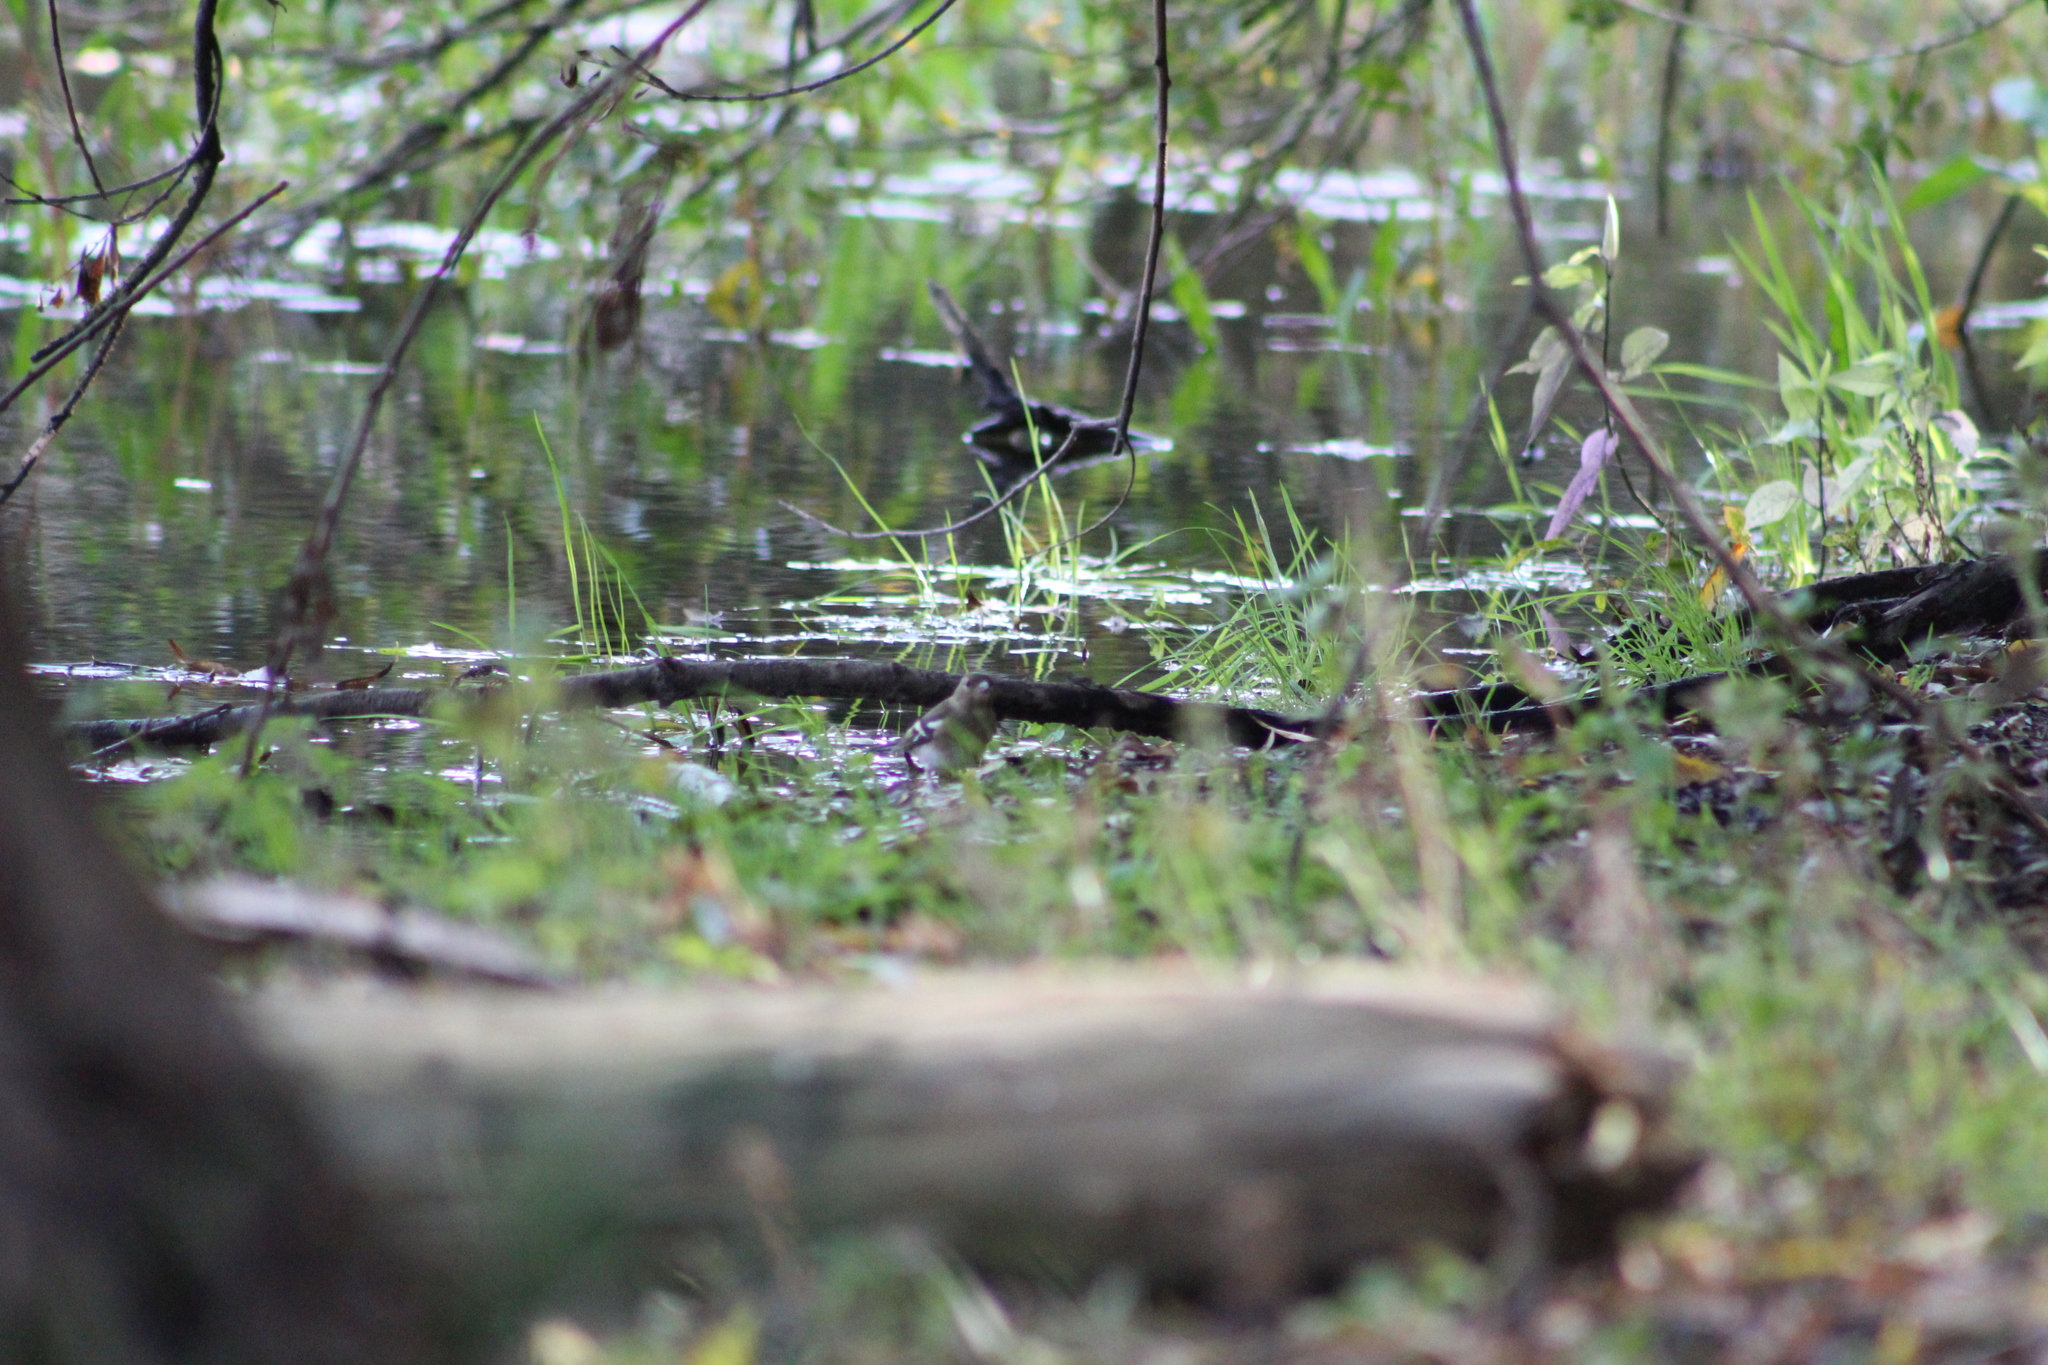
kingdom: Animalia
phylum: Chordata
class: Aves
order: Passeriformes
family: Fringillidae
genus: Fringilla
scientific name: Fringilla coelebs
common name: Common chaffinch
